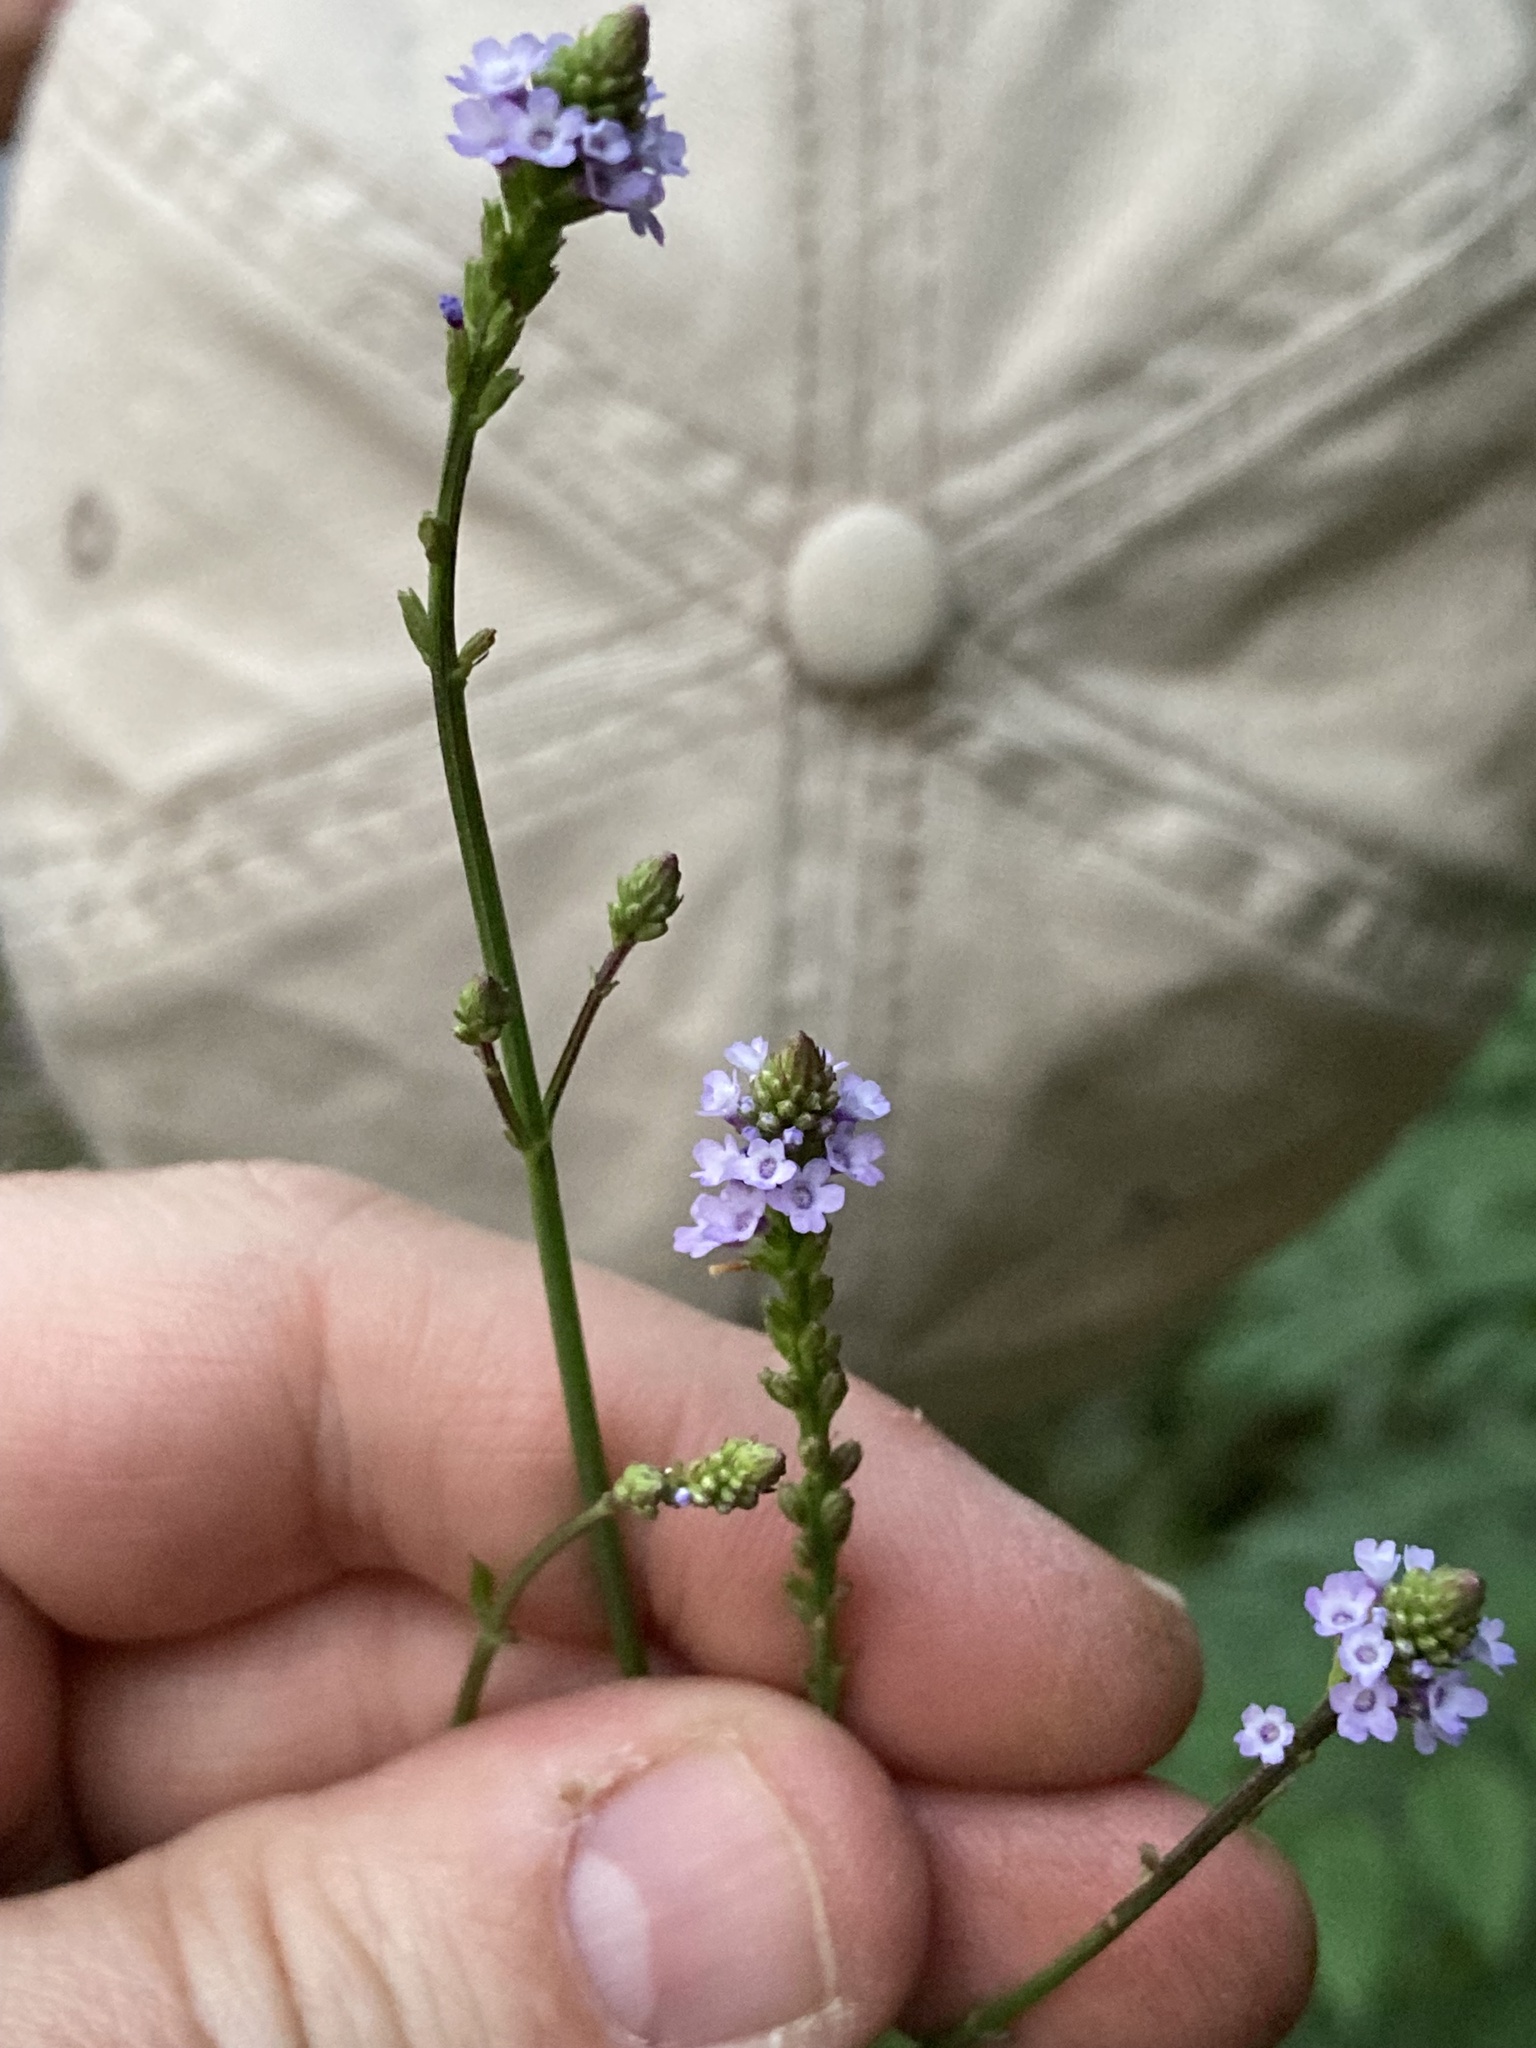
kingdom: Plantae
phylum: Tracheophyta
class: Magnoliopsida
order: Lamiales
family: Verbenaceae
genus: Verbena
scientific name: Verbena litoralis
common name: Seashore vervain
